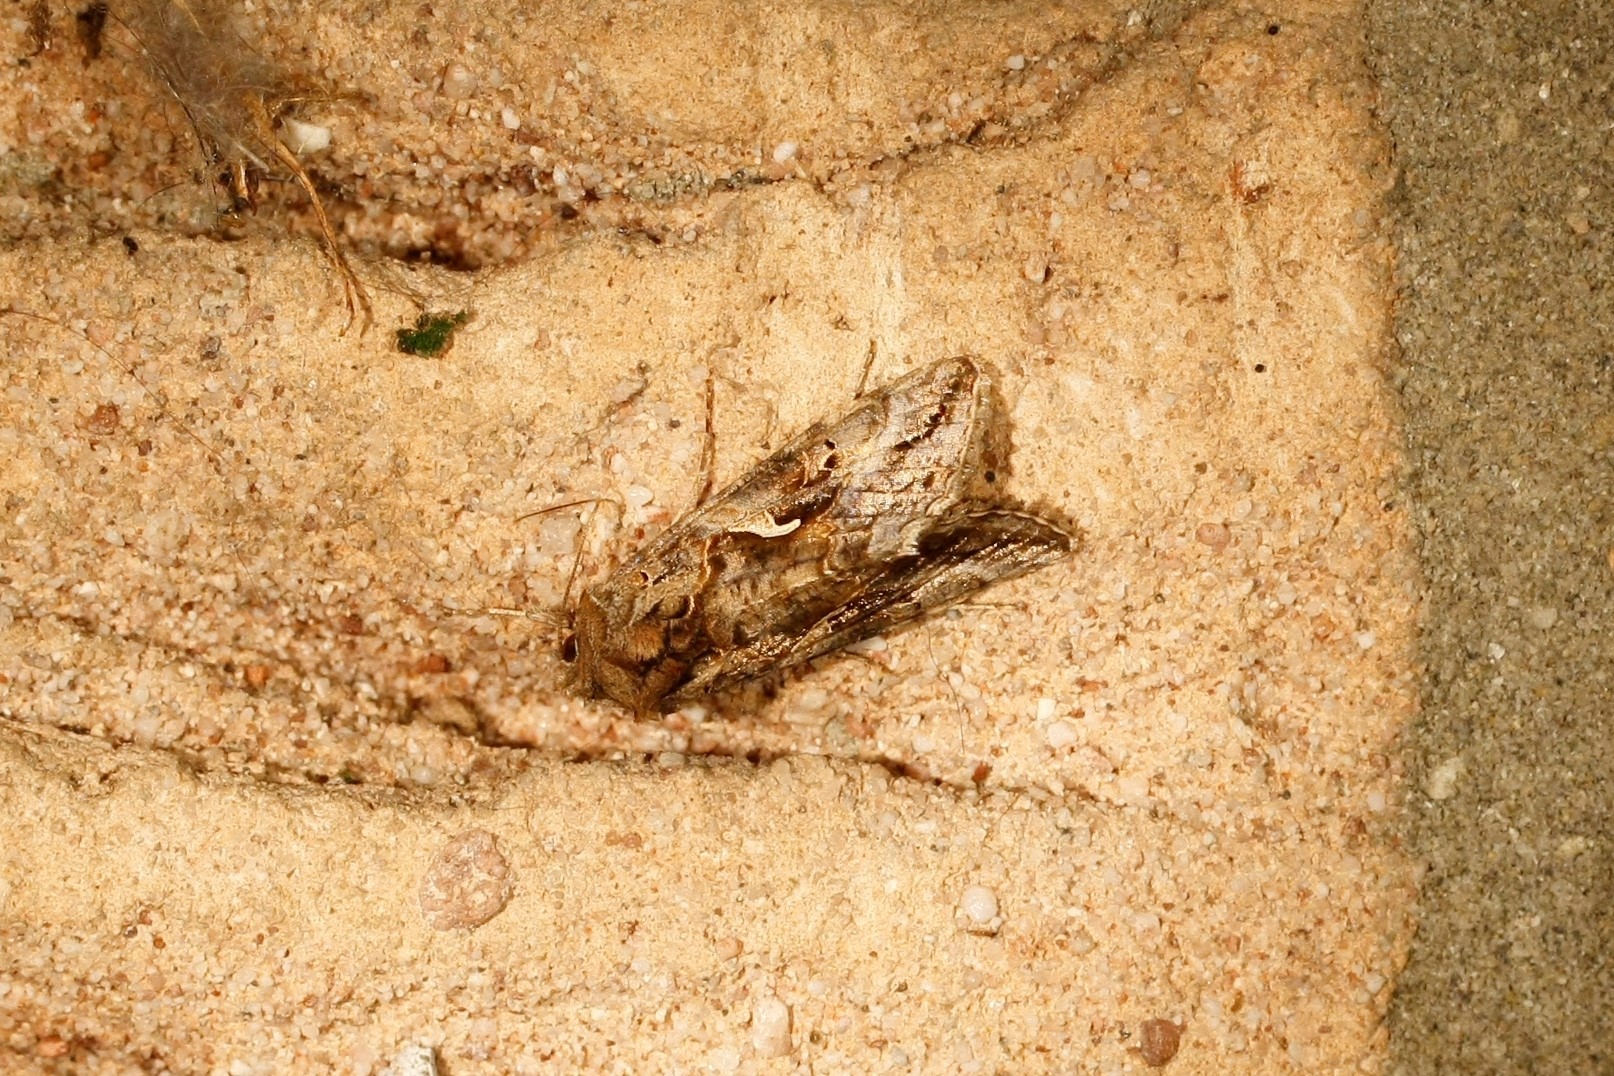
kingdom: Animalia
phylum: Arthropoda
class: Insecta
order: Lepidoptera
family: Noctuidae
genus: Autographa
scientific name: Autographa gamma
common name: Silver y
